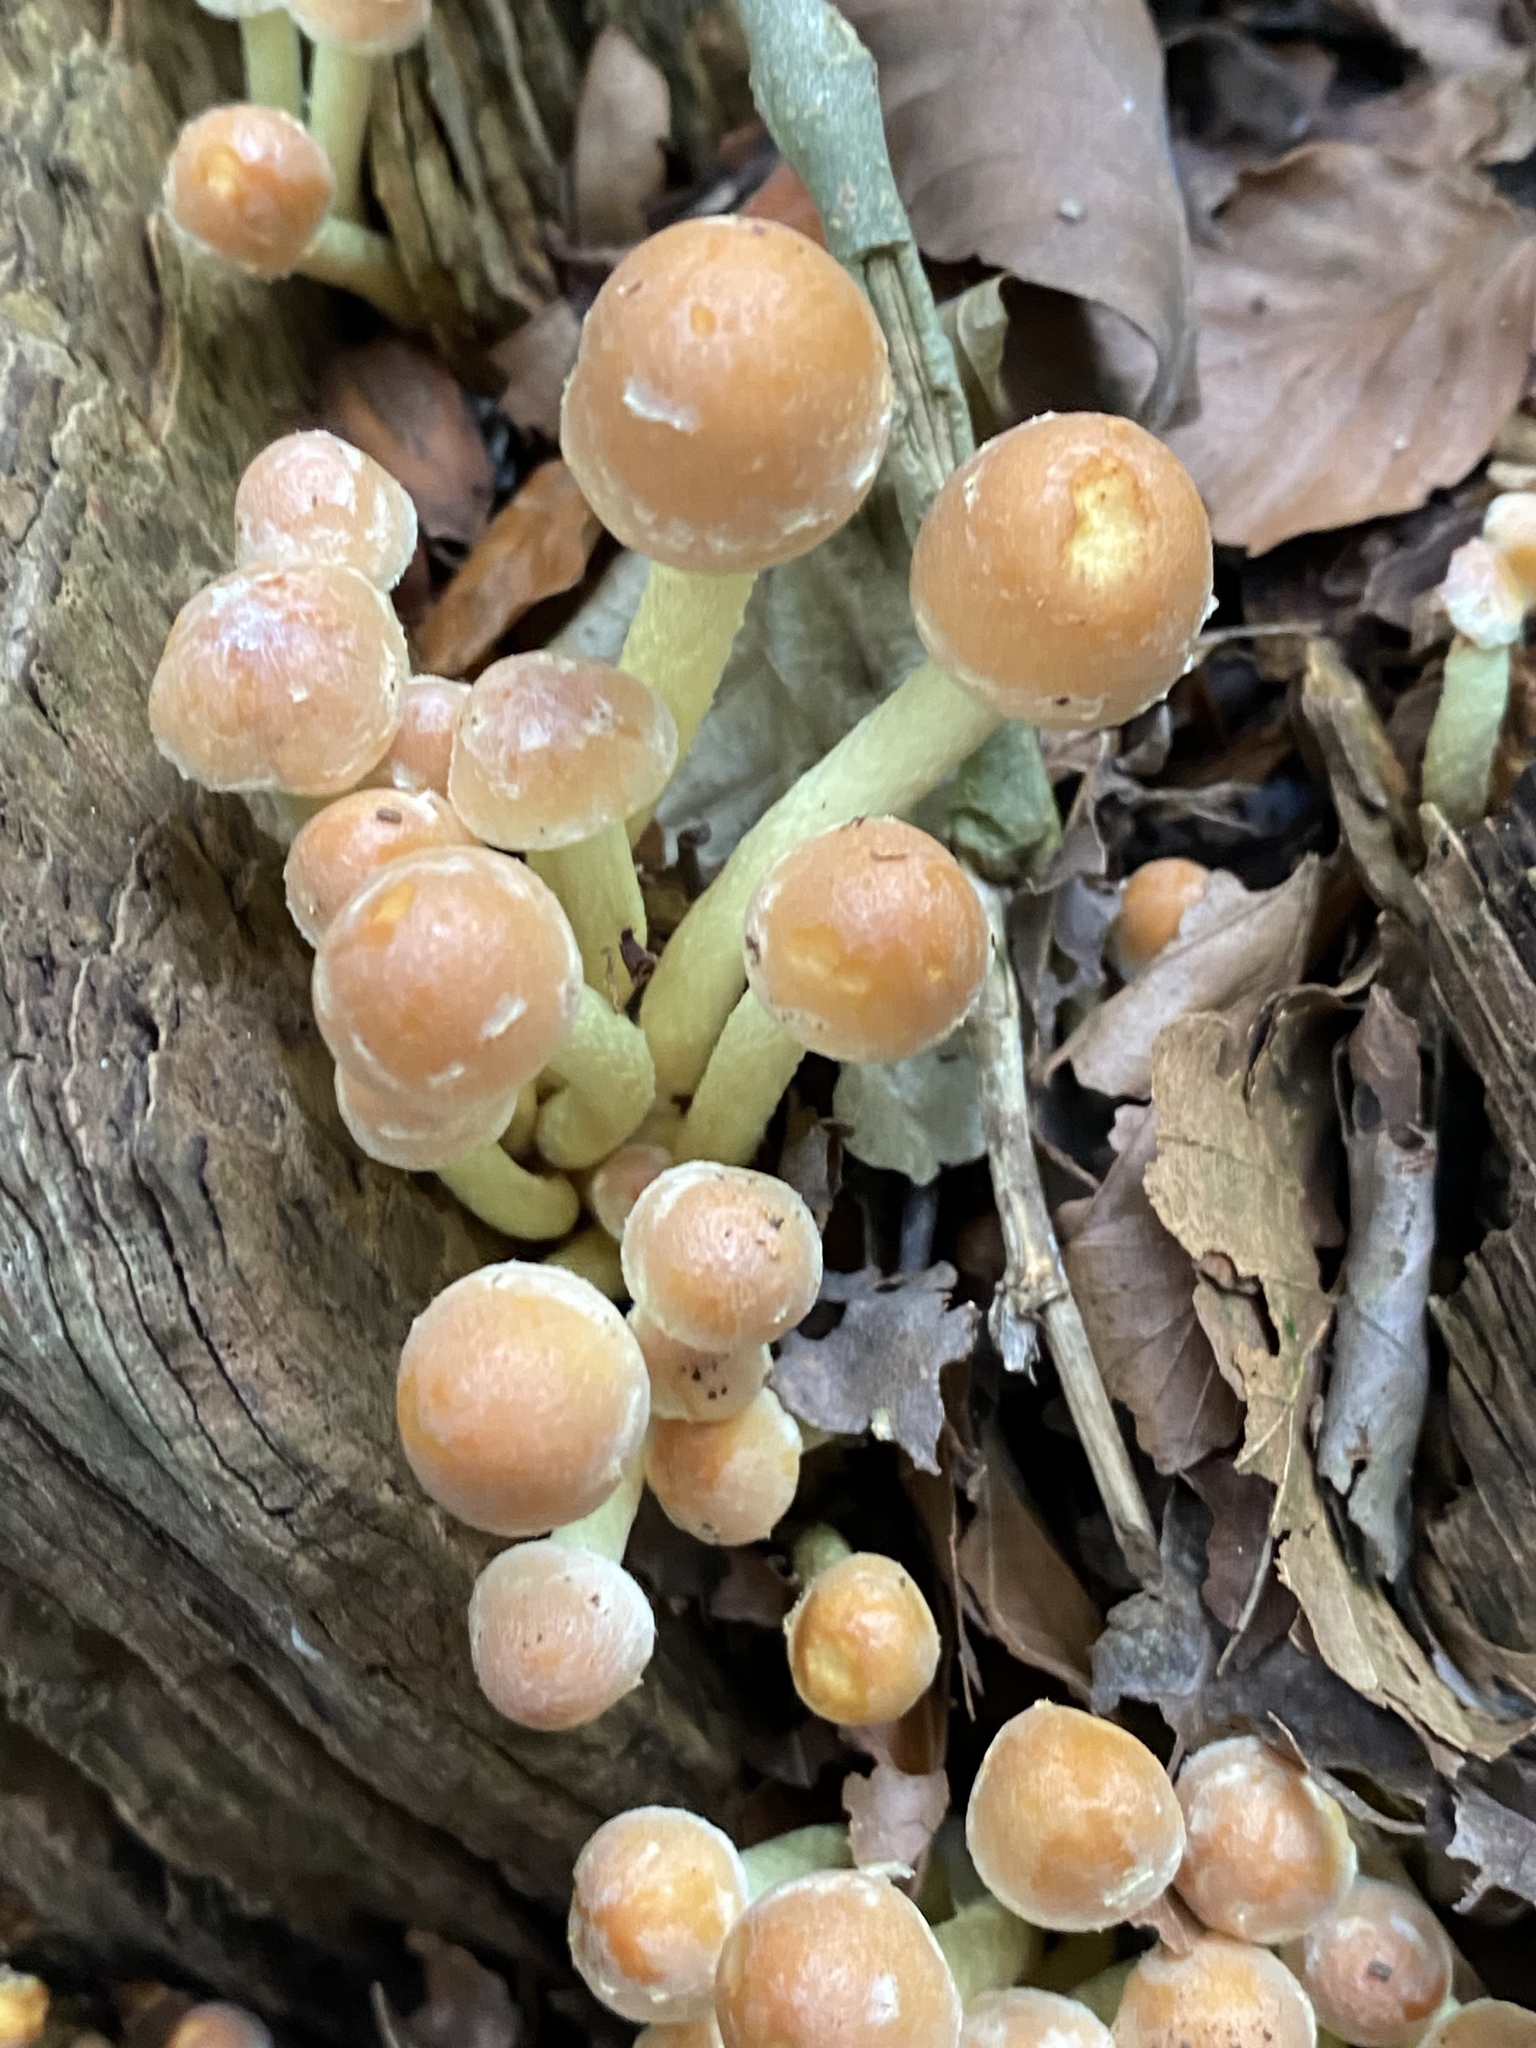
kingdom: Fungi
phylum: Basidiomycota
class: Agaricomycetes
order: Agaricales
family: Strophariaceae
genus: Hypholoma
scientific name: Hypholoma fasciculare
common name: Sulphur tuft
